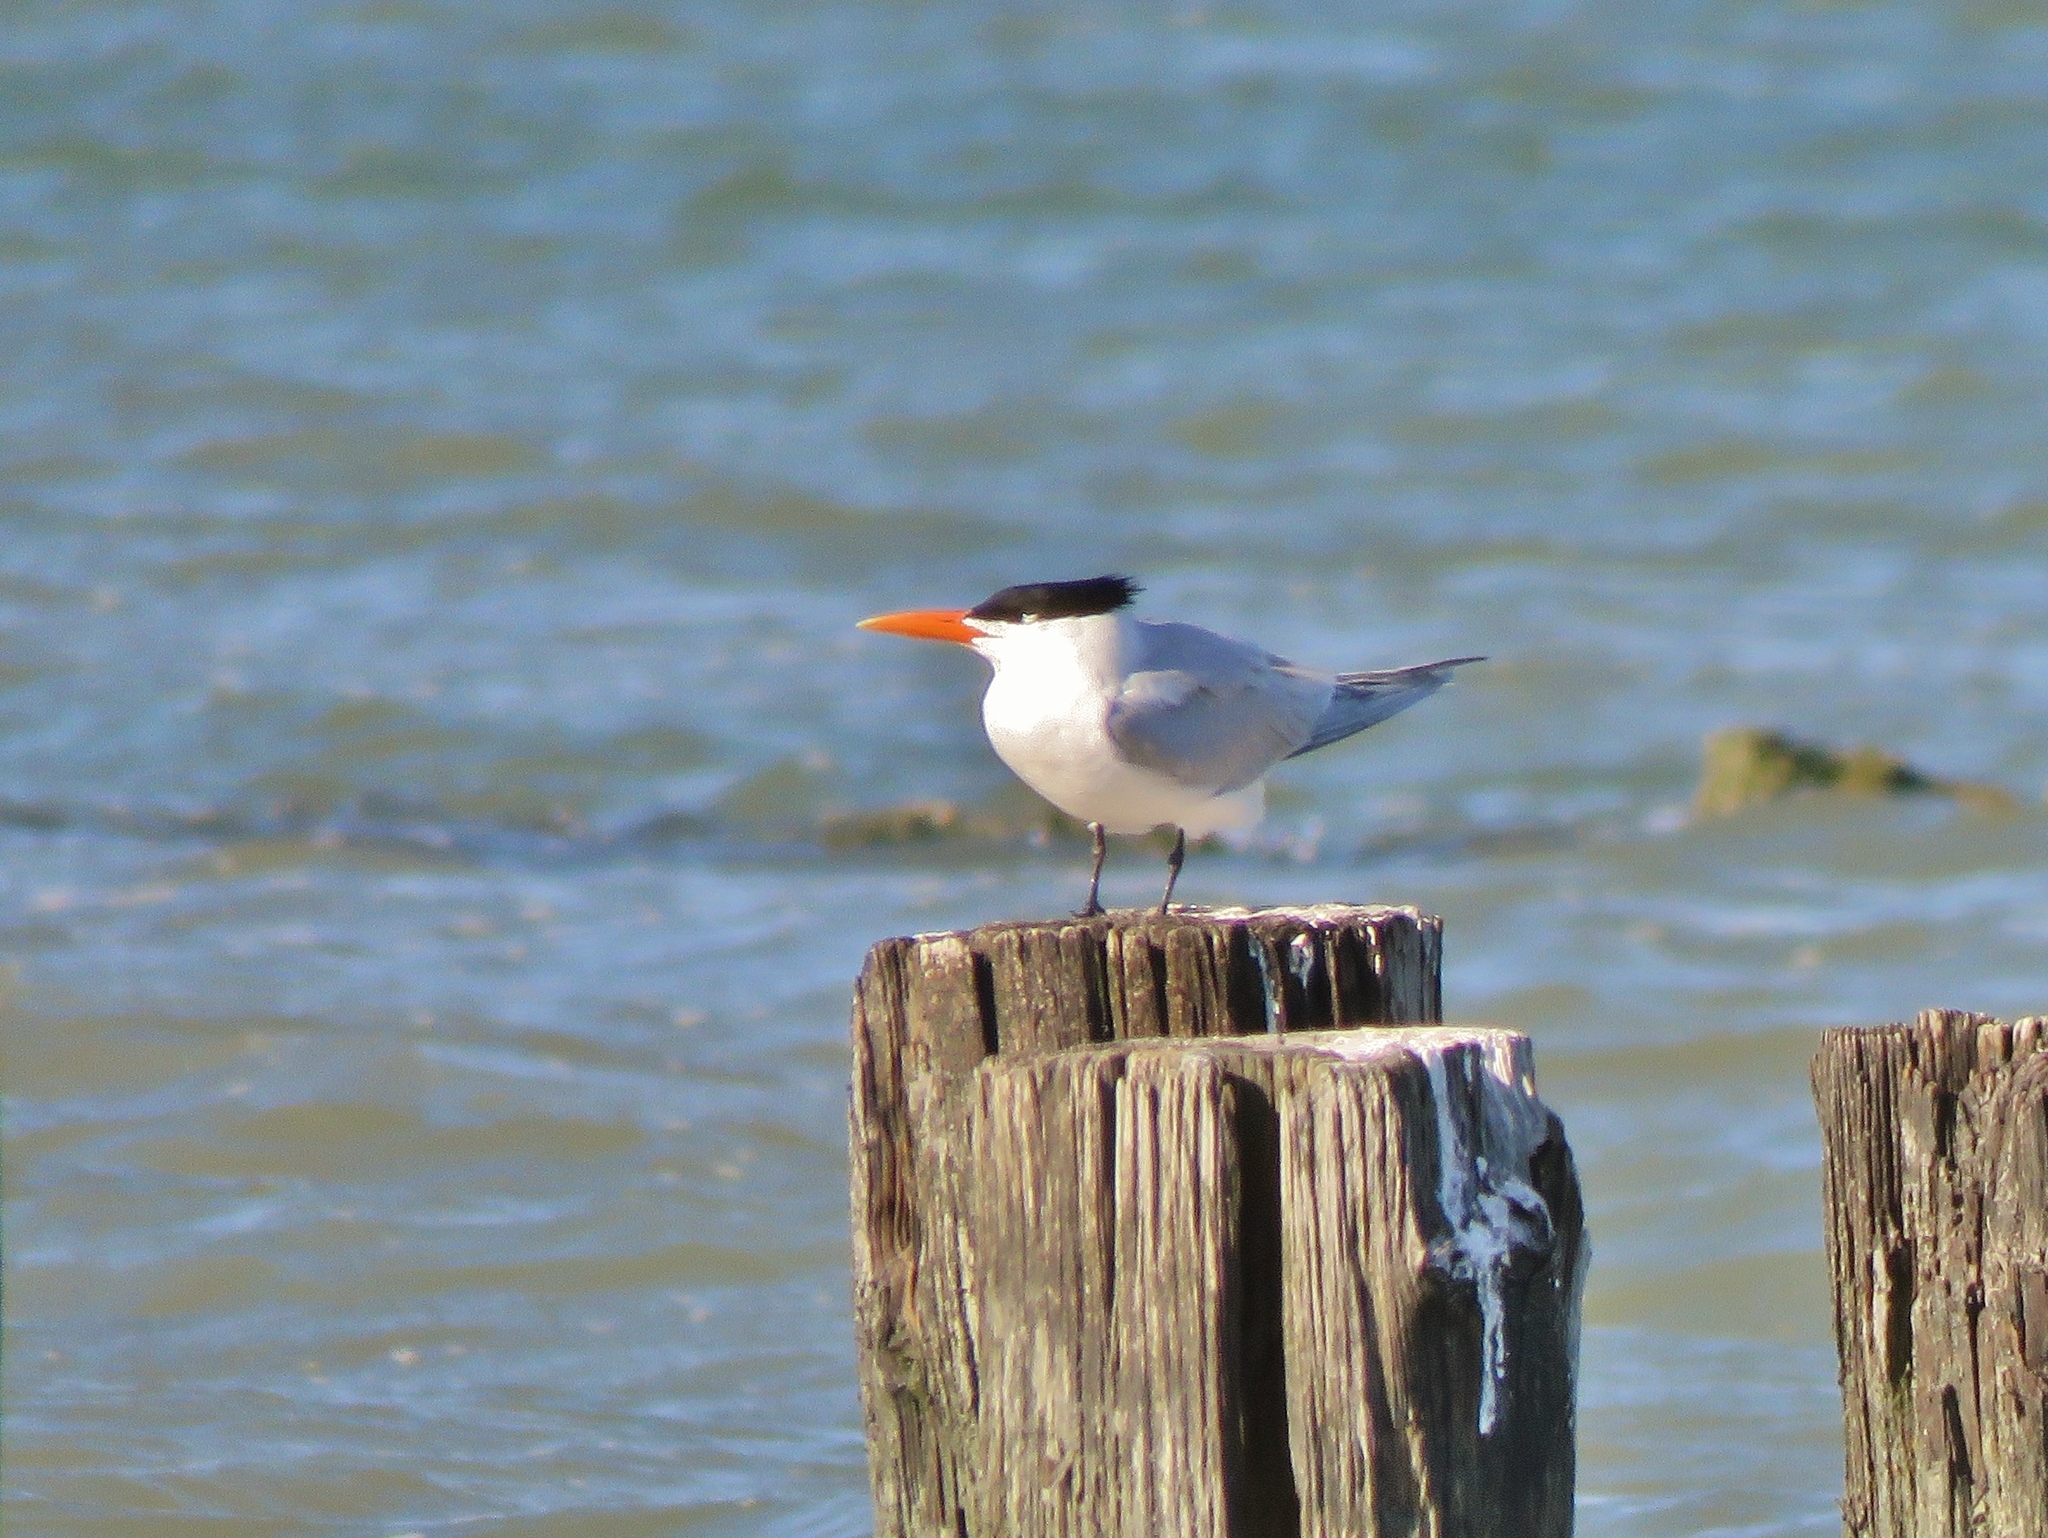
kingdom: Animalia
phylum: Chordata
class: Aves
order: Charadriiformes
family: Laridae
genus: Thalasseus
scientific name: Thalasseus maximus
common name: Royal tern
